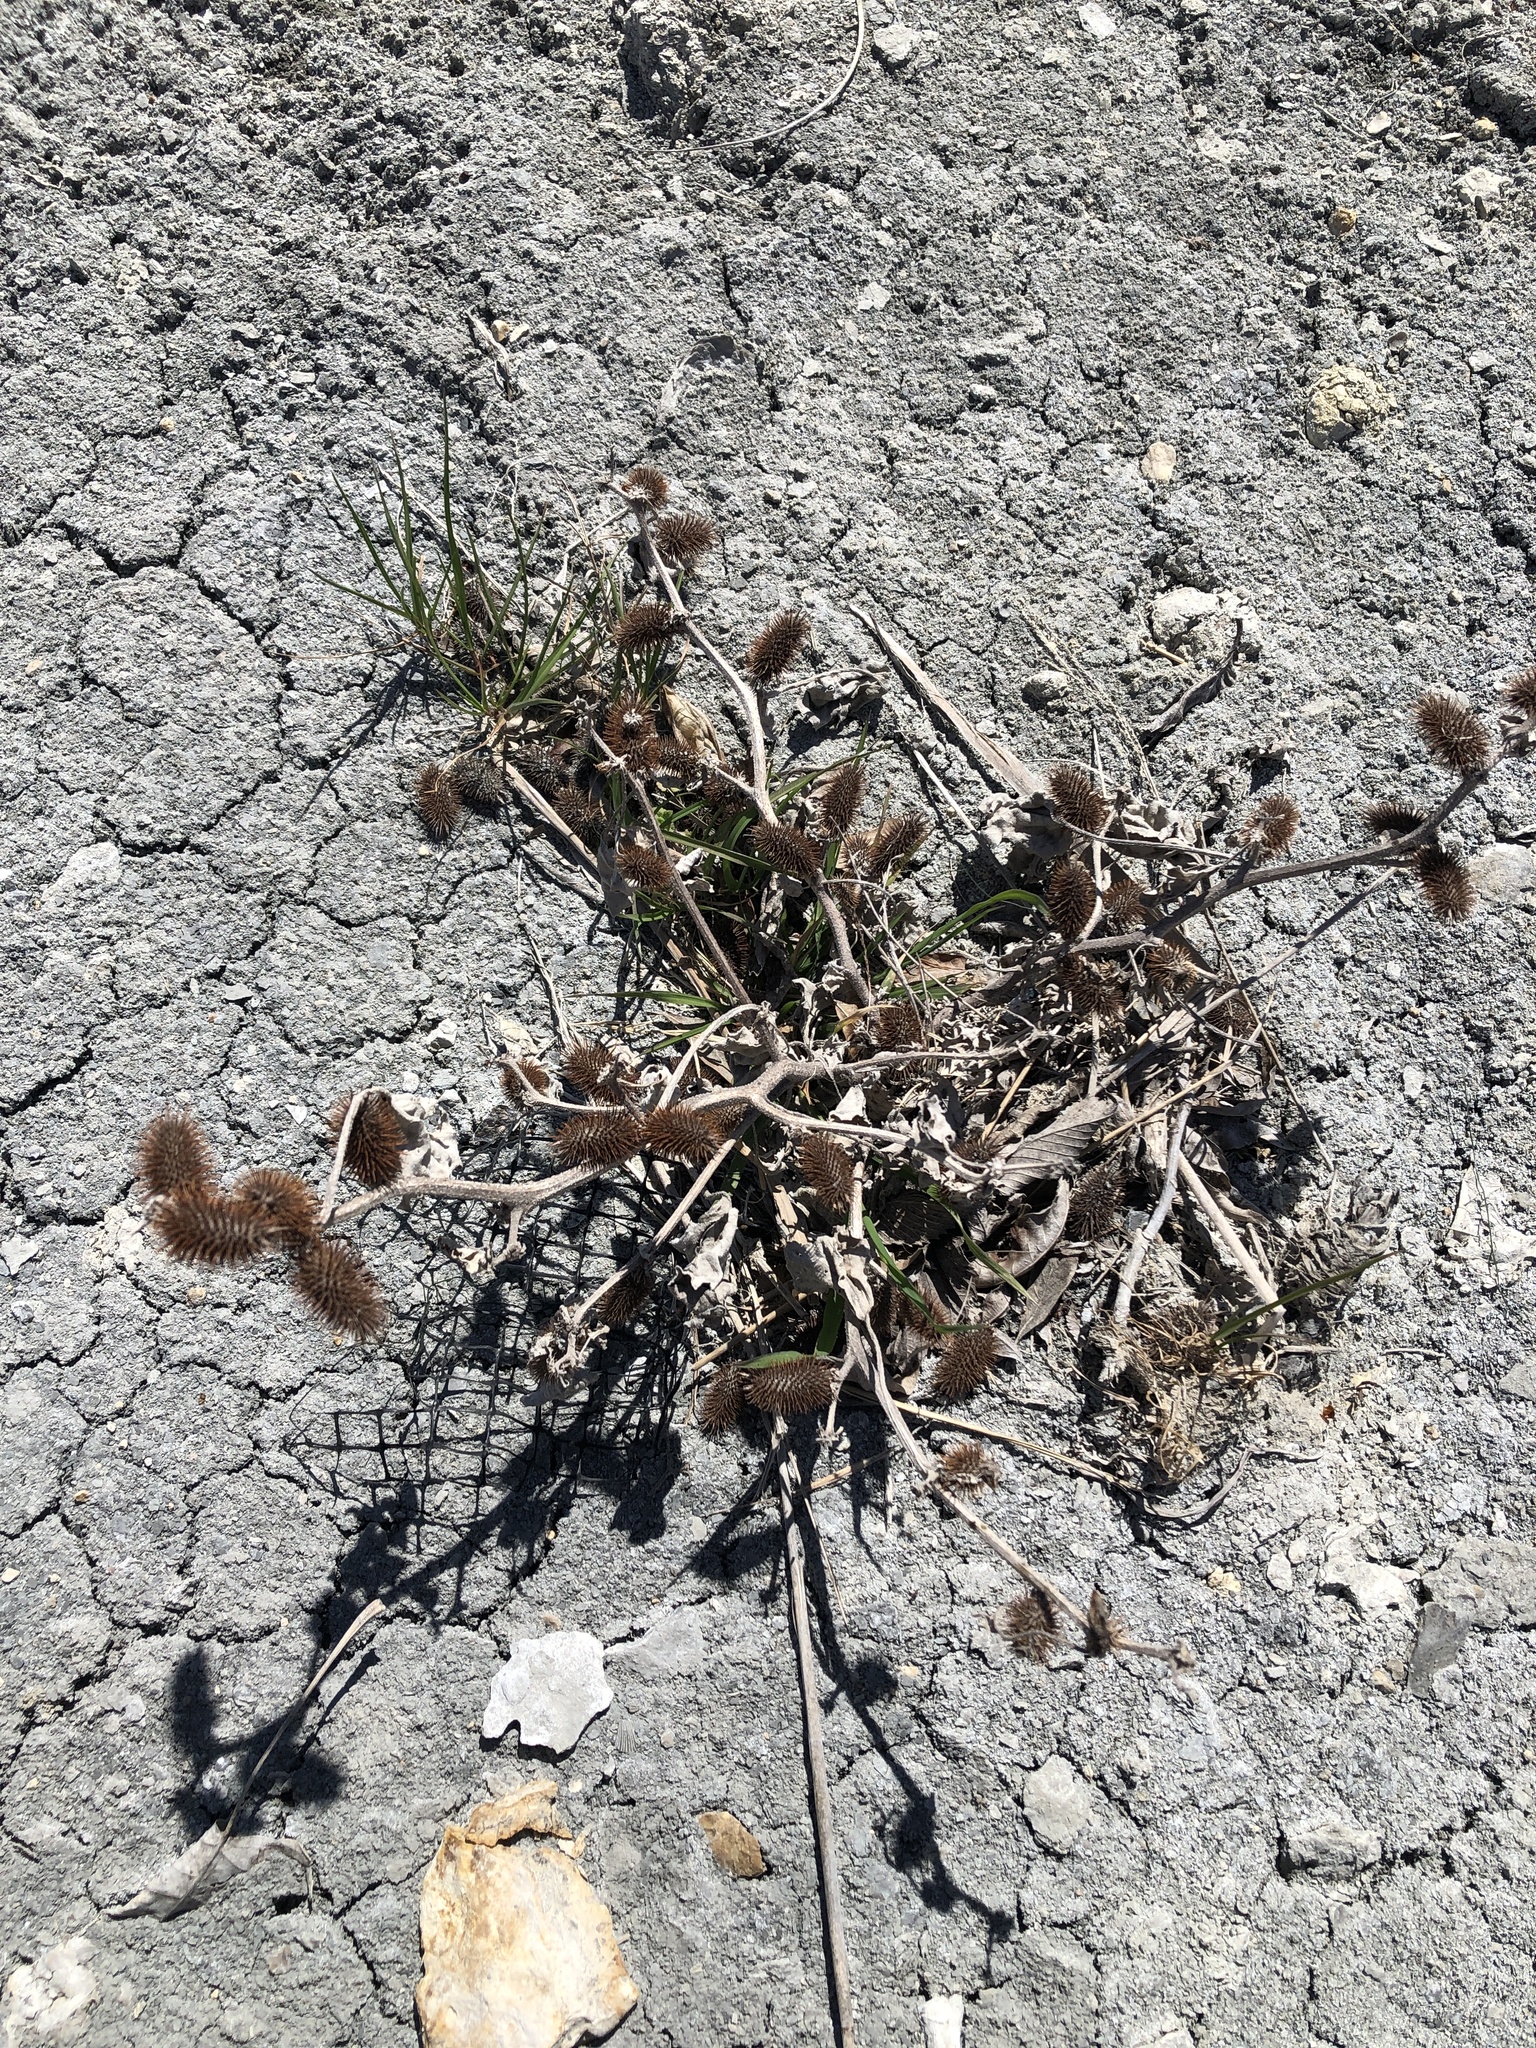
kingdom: Plantae
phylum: Tracheophyta
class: Magnoliopsida
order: Asterales
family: Asteraceae
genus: Xanthium
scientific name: Xanthium strumarium
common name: Rough cocklebur
